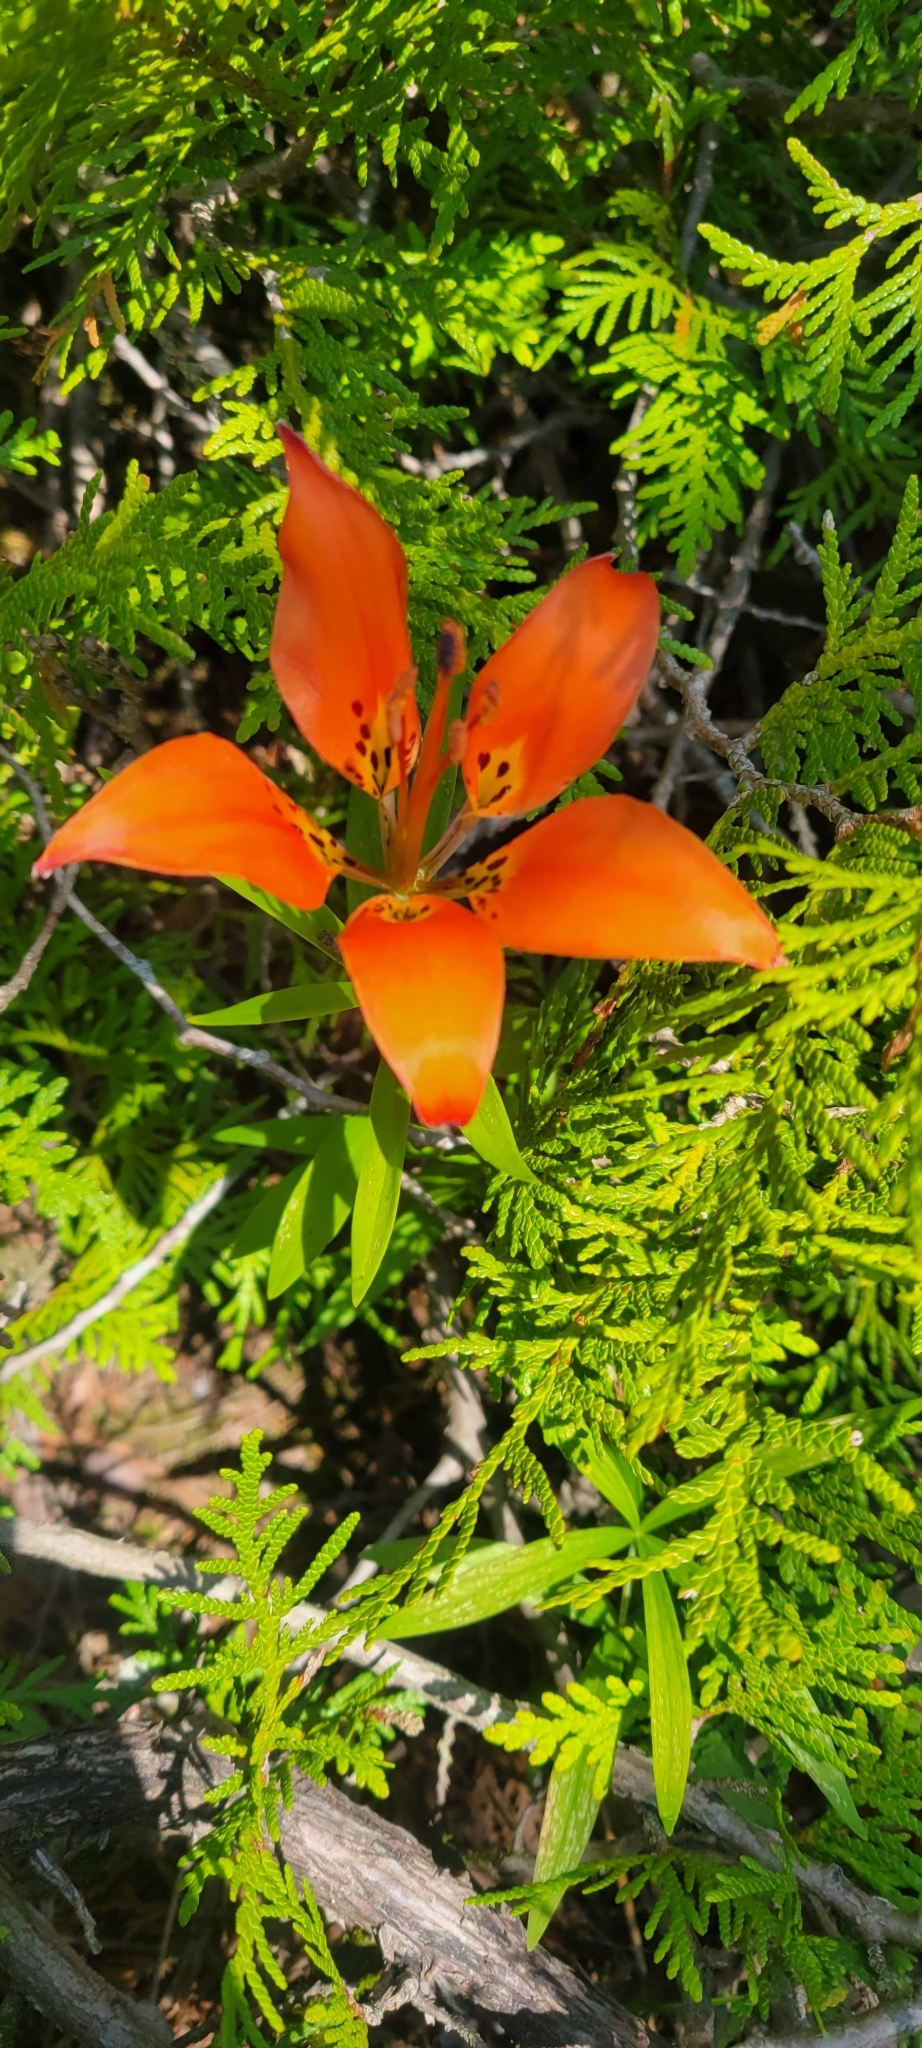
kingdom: Plantae
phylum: Tracheophyta
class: Liliopsida
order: Liliales
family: Liliaceae
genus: Lilium
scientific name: Lilium philadelphicum
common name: Red lily
